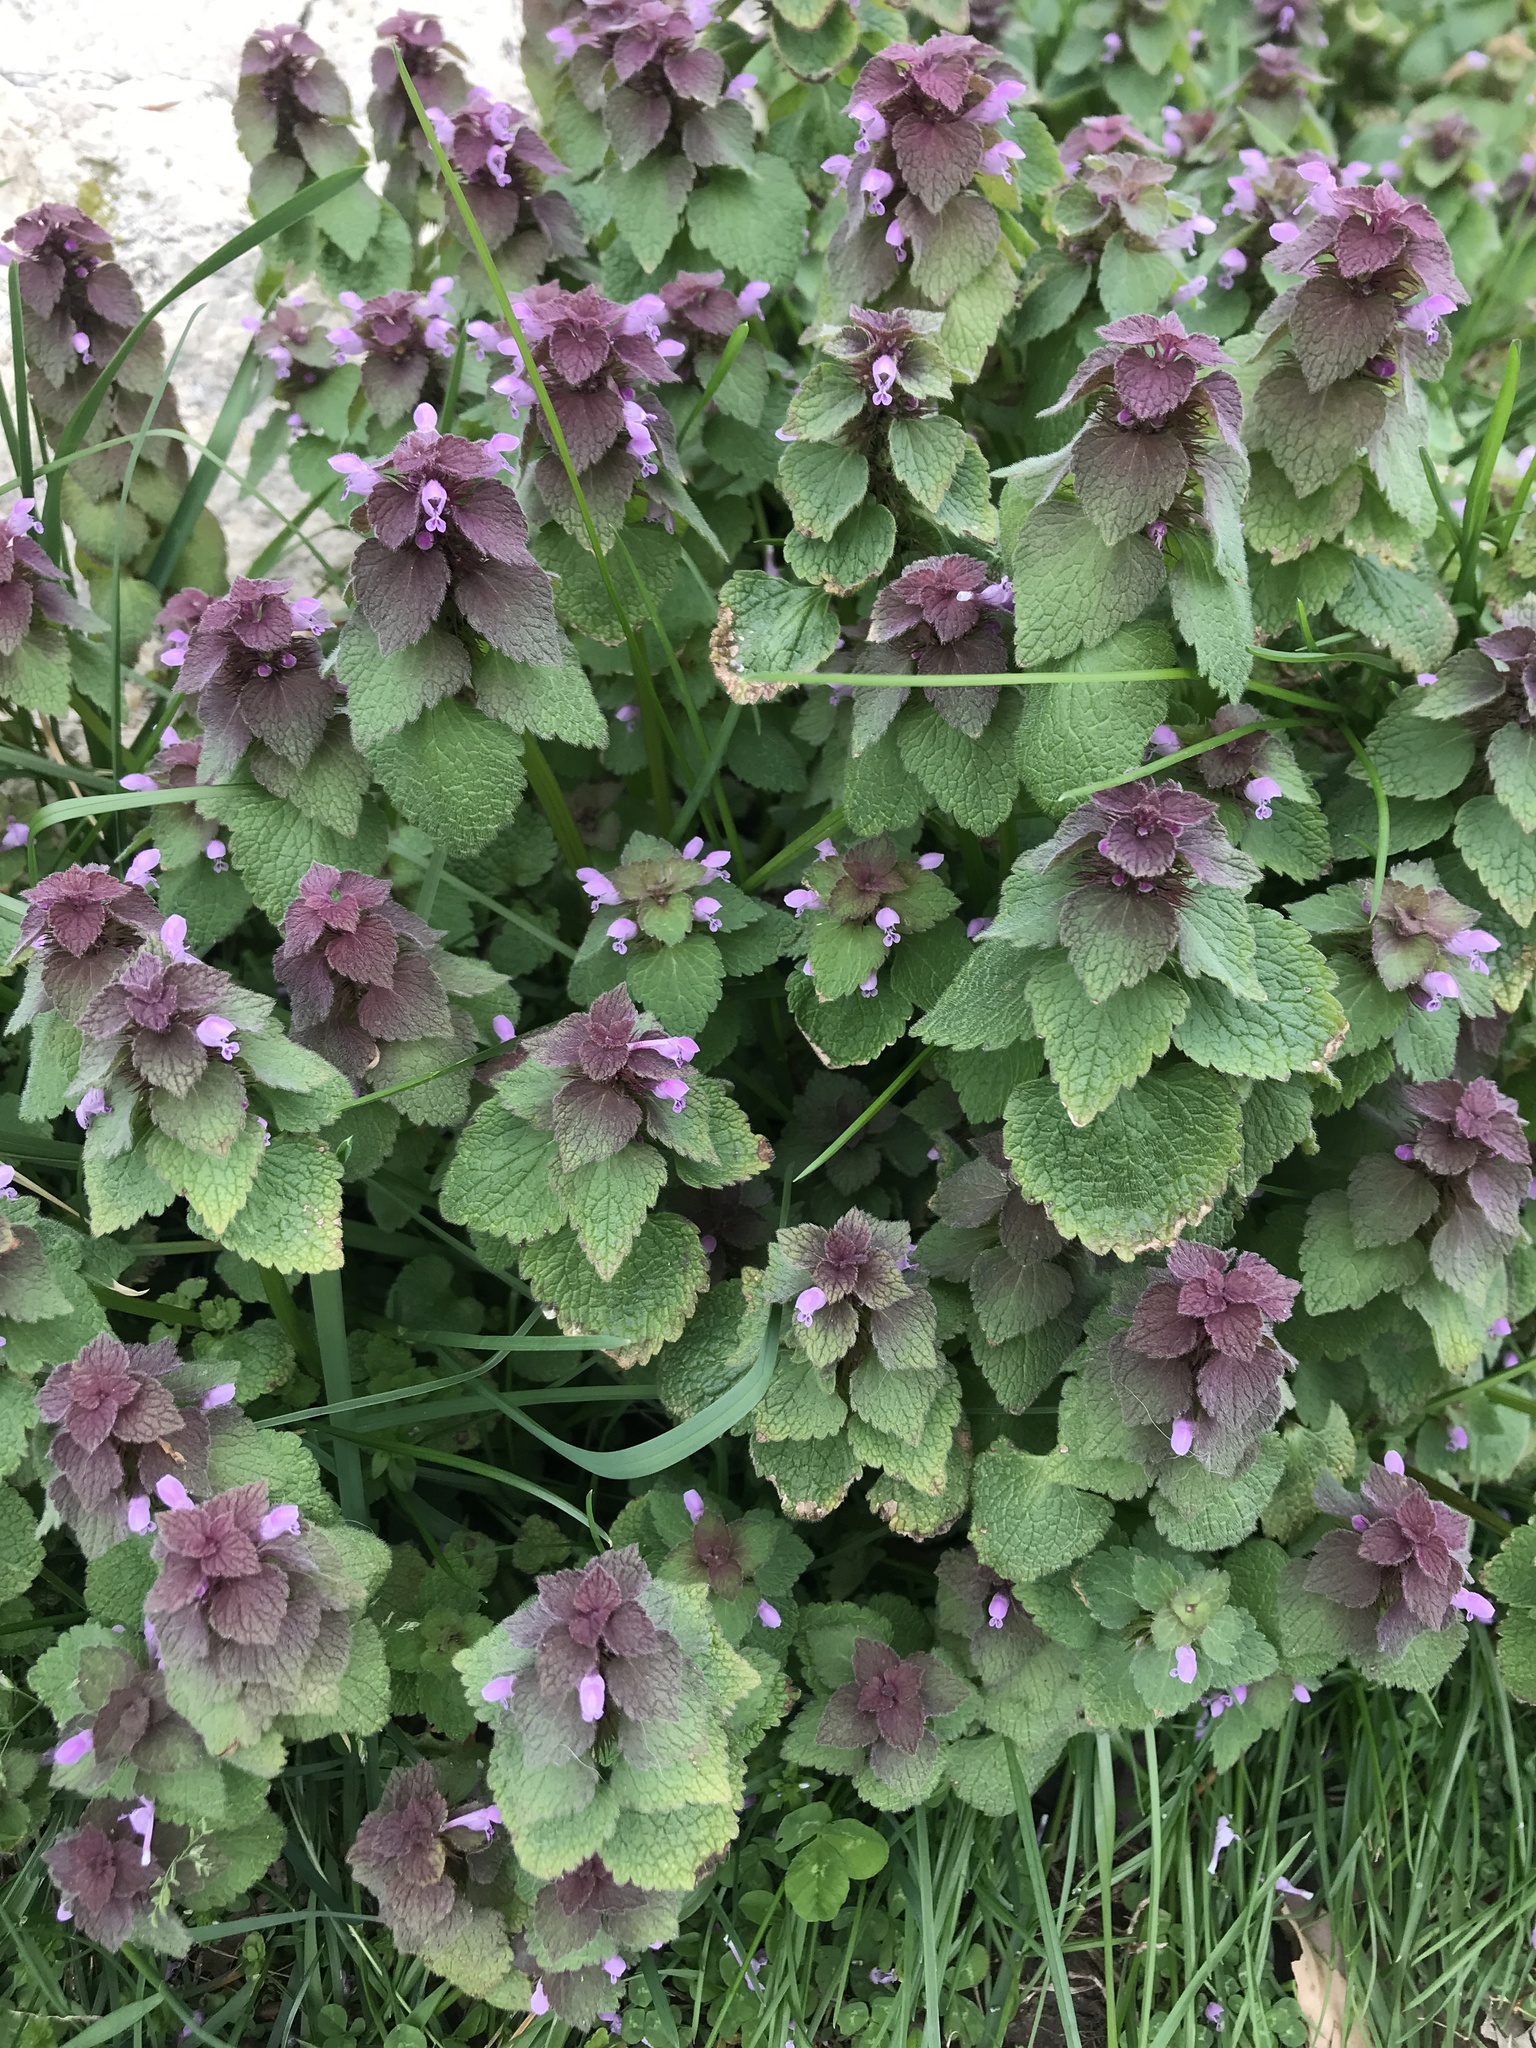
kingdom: Plantae
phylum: Tracheophyta
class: Magnoliopsida
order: Lamiales
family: Lamiaceae
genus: Lamium
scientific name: Lamium purpureum
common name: Red dead-nettle
